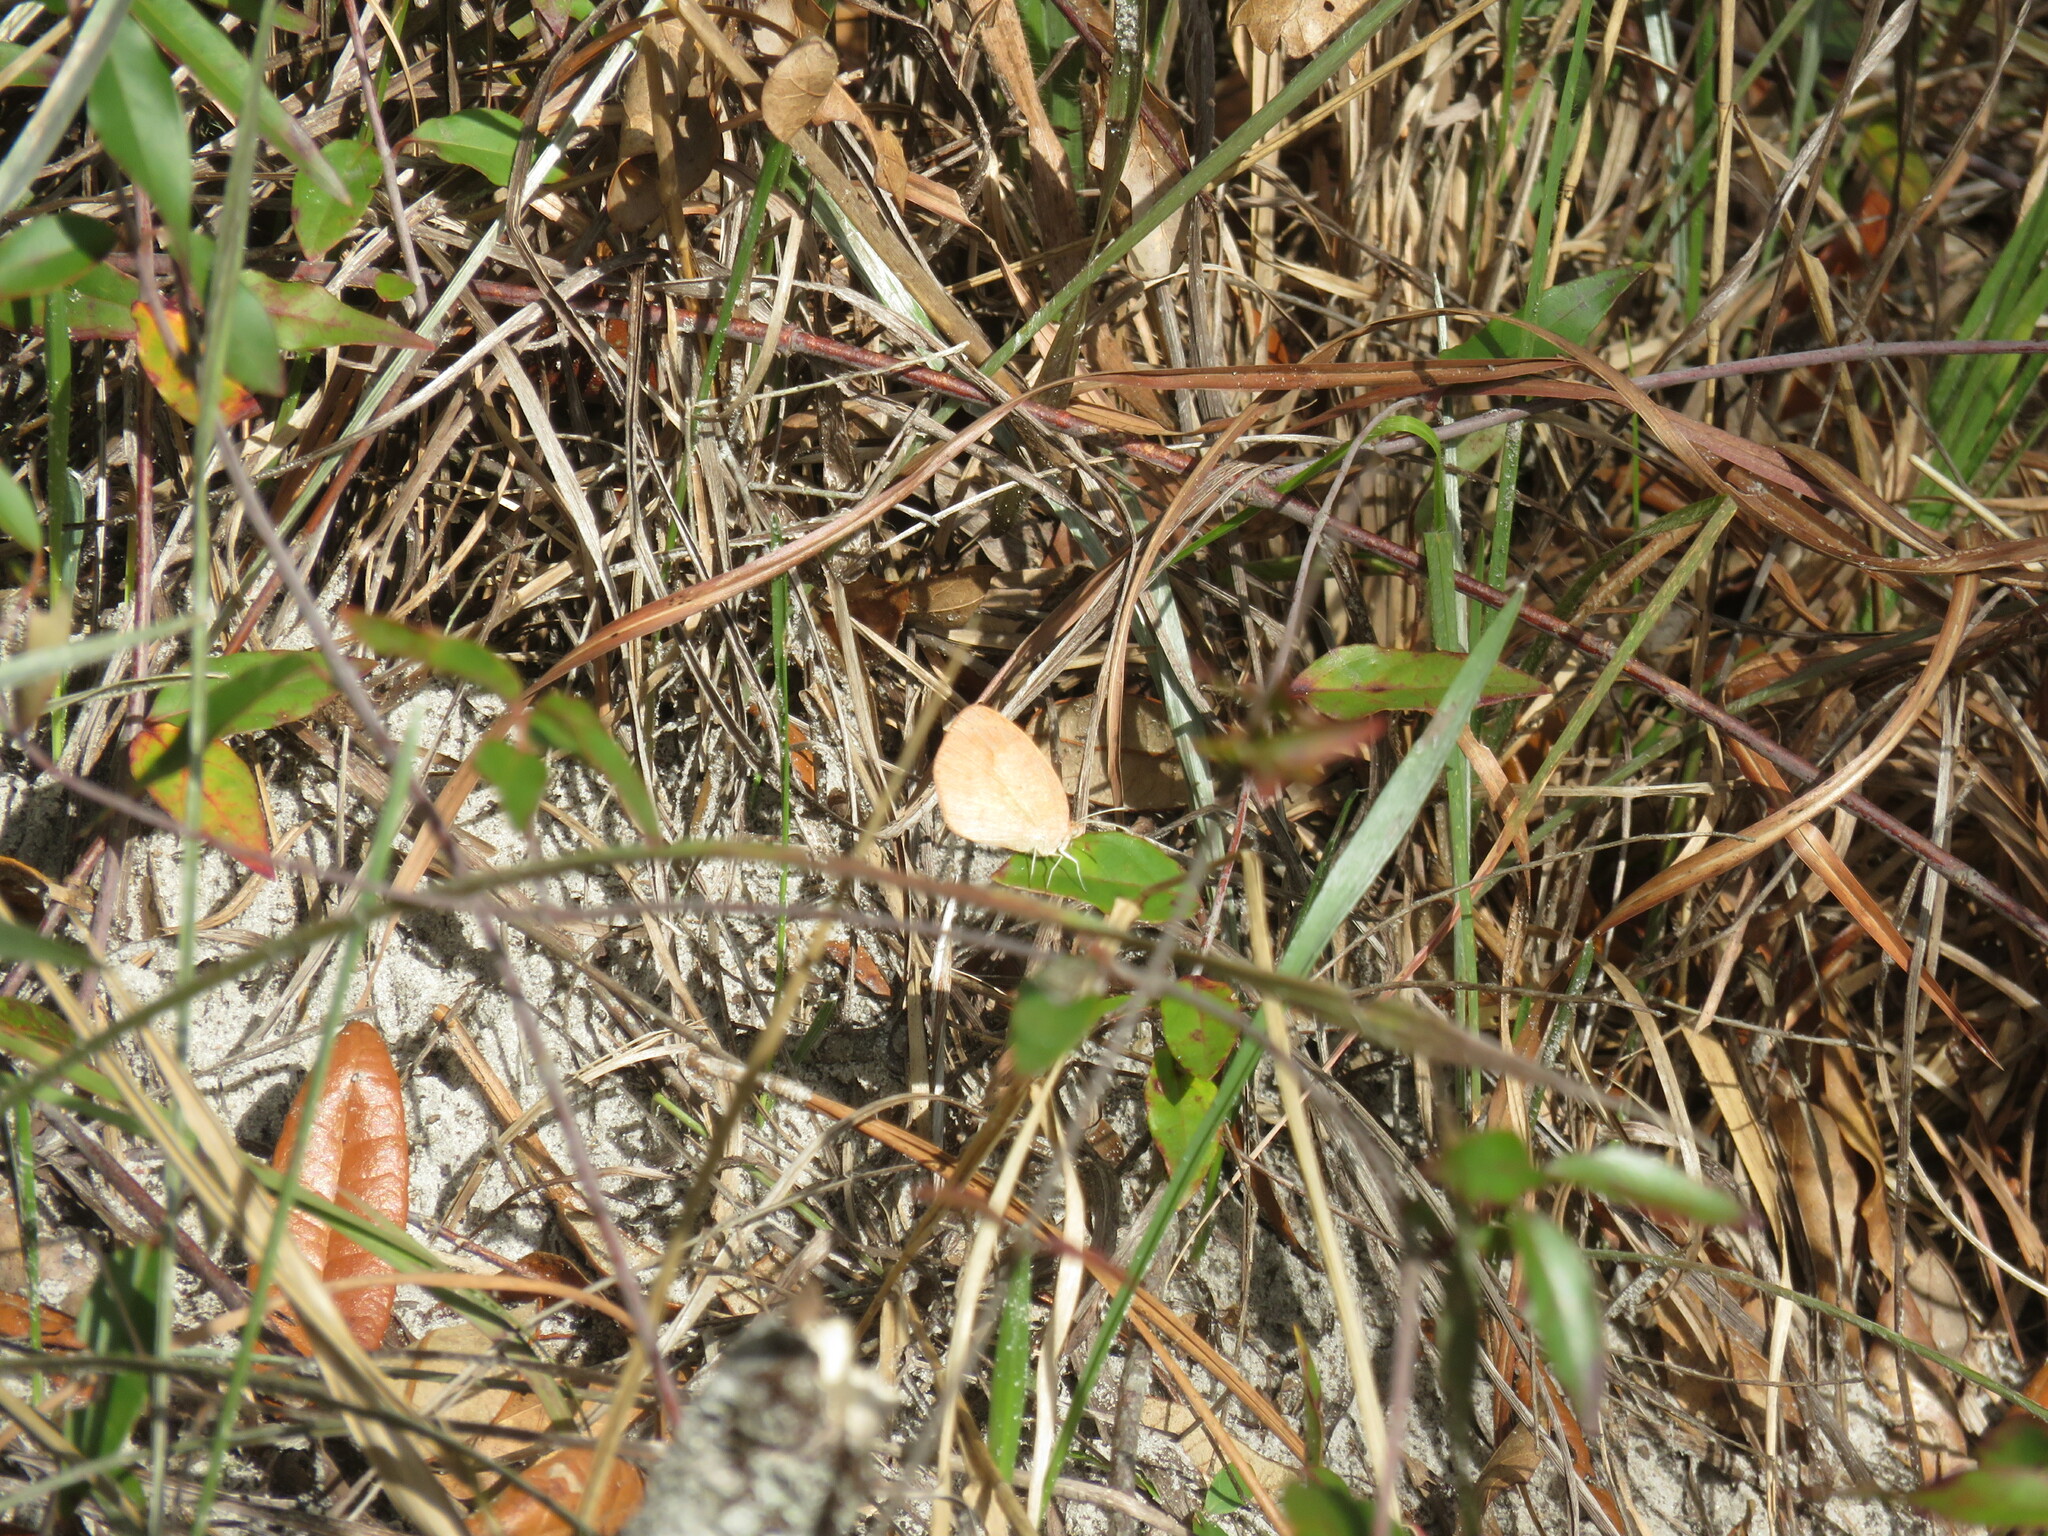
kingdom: Animalia
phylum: Arthropoda
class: Insecta
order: Lepidoptera
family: Pieridae
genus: Eurema
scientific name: Eurema daira
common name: Barred sulphur
